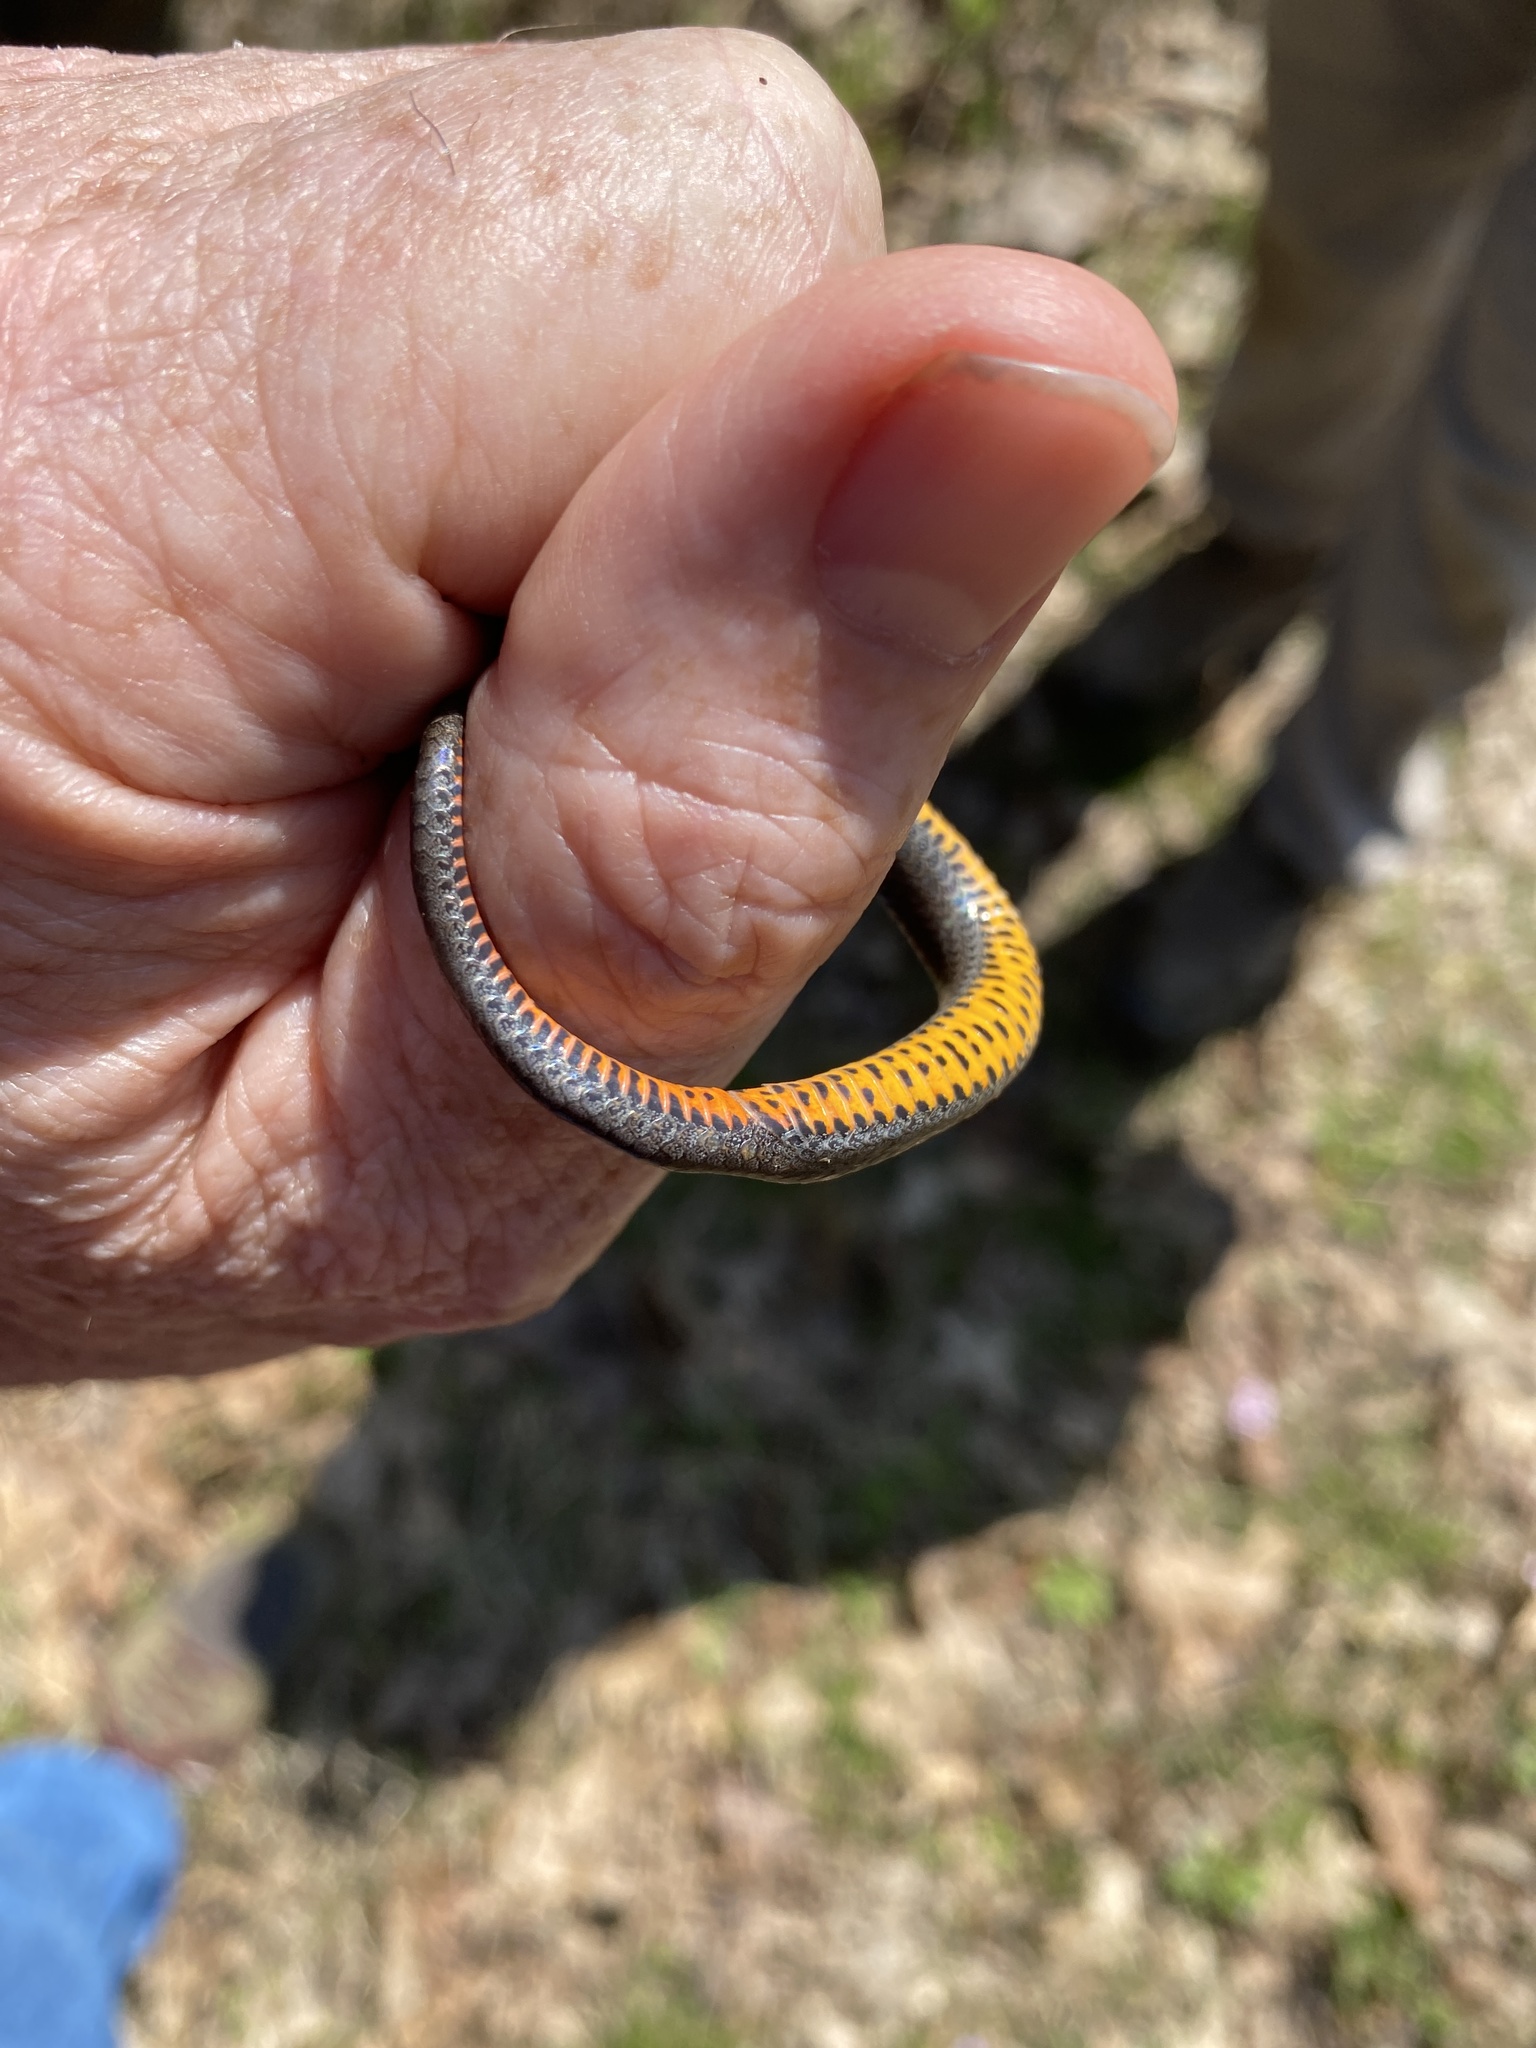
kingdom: Animalia
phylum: Chordata
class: Squamata
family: Colubridae
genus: Diadophis
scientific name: Diadophis punctatus
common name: Ringneck snake
